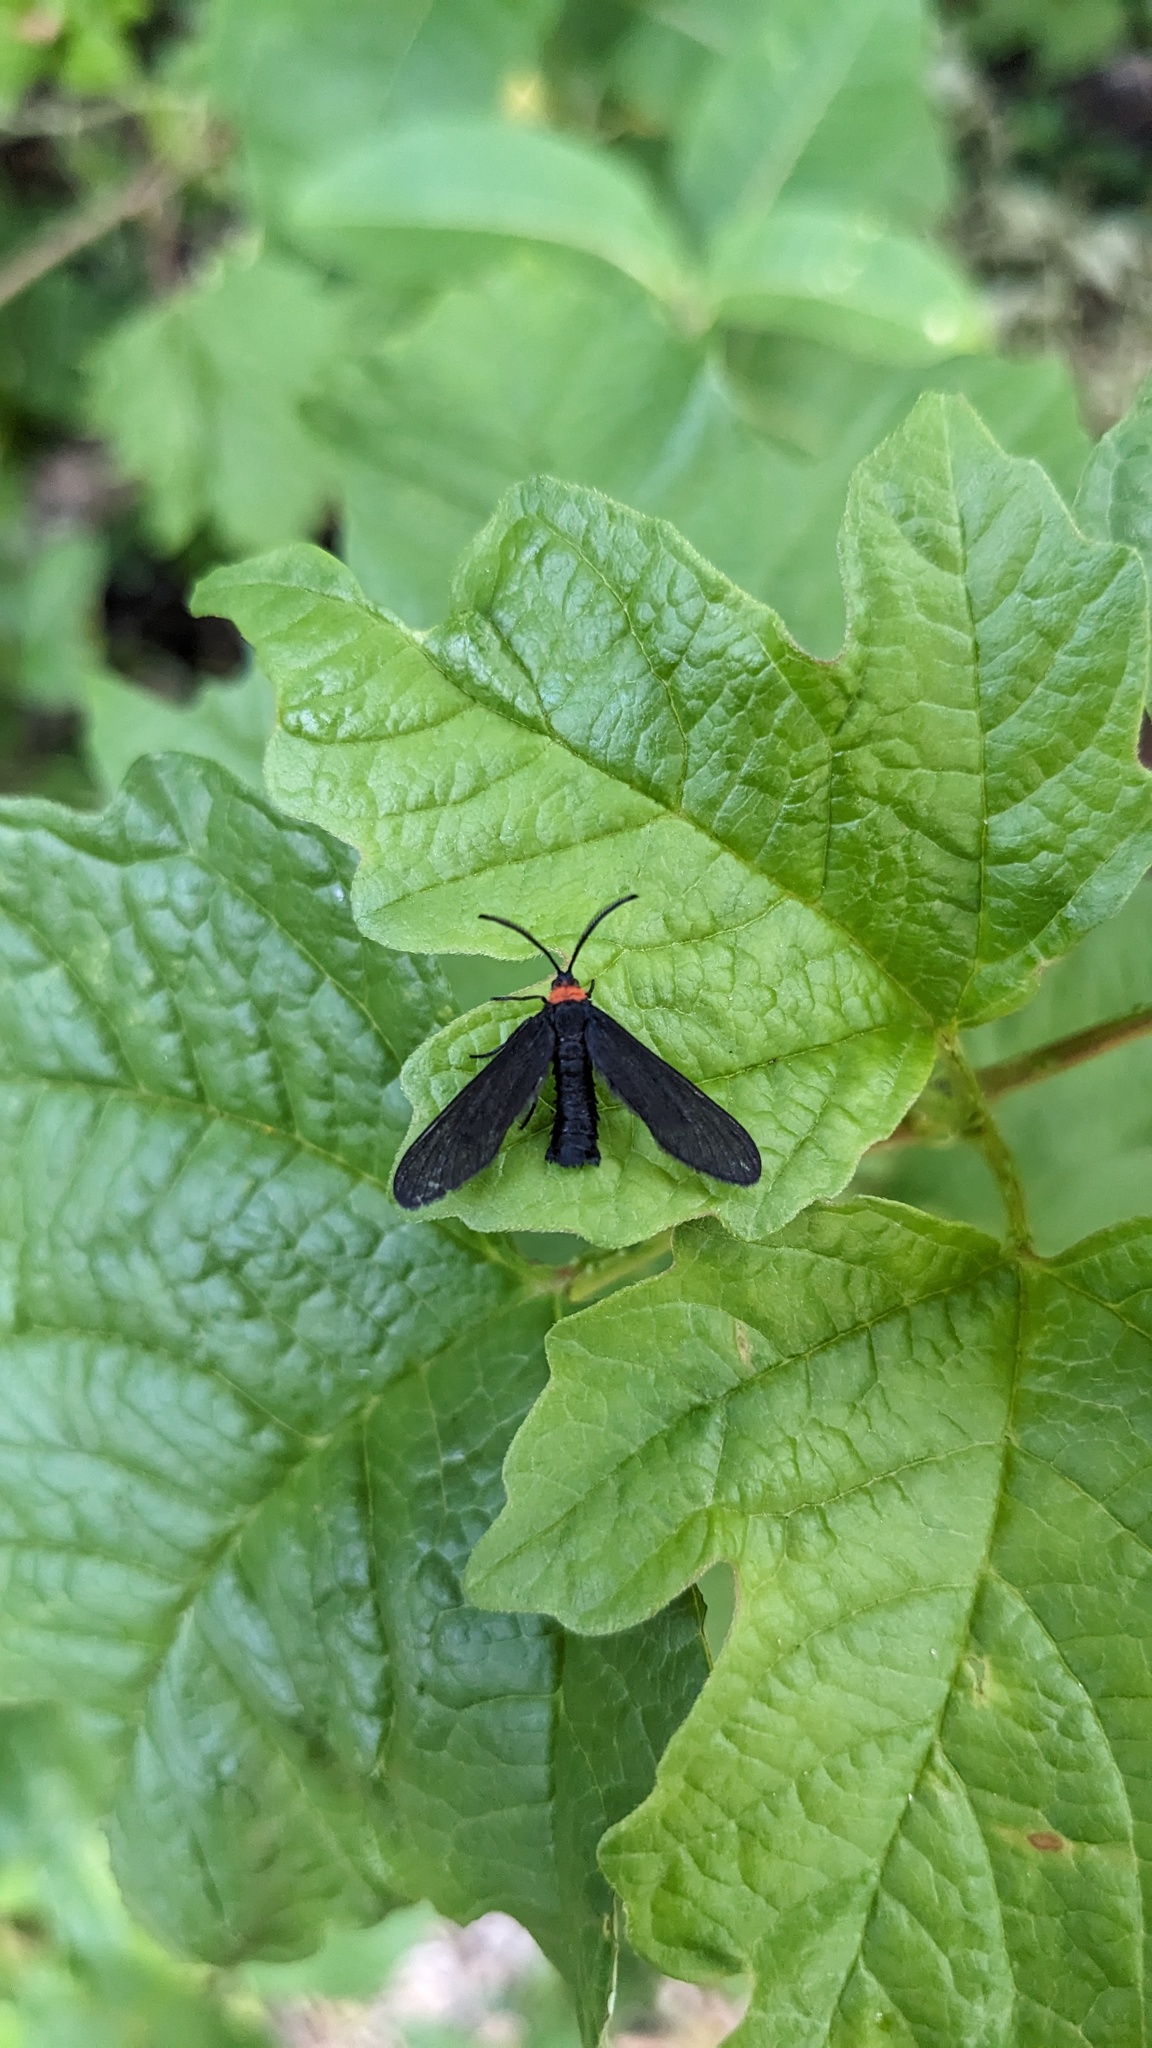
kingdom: Animalia
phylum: Arthropoda
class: Insecta
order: Lepidoptera
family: Zygaenidae
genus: Harrisina
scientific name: Harrisina americana
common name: Grapeleaf skeletonizer moth
